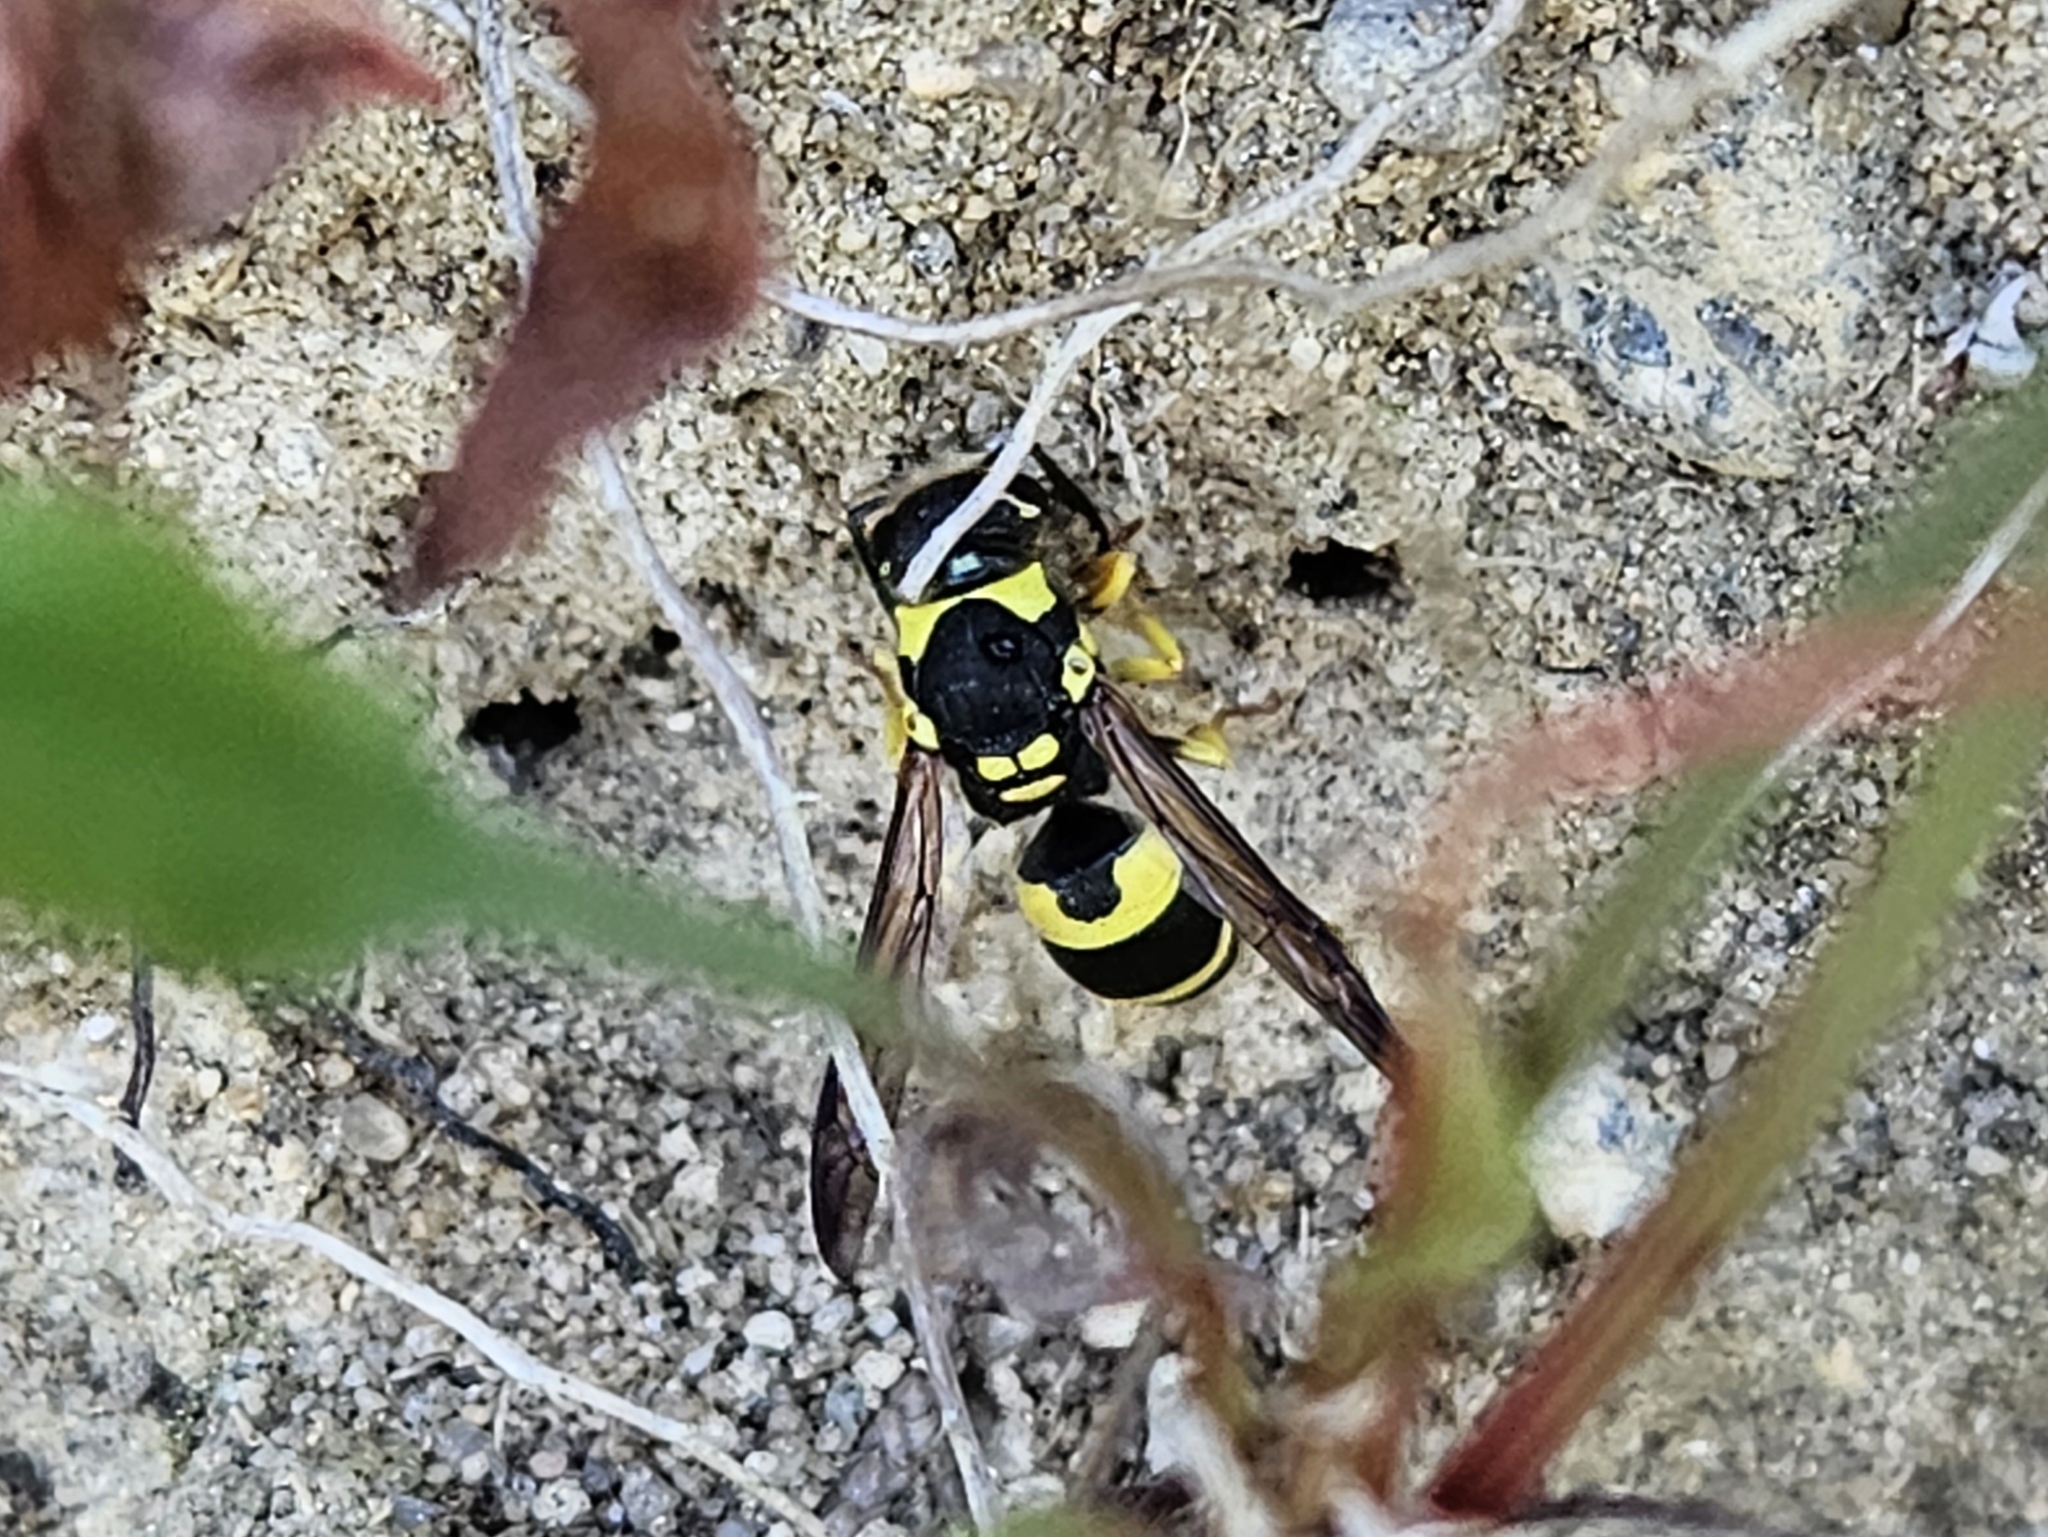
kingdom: Animalia
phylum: Arthropoda
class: Insecta
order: Hymenoptera
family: Vespidae
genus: Ancistrocerus
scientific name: Ancistrocerus gazella
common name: European tube wasp
